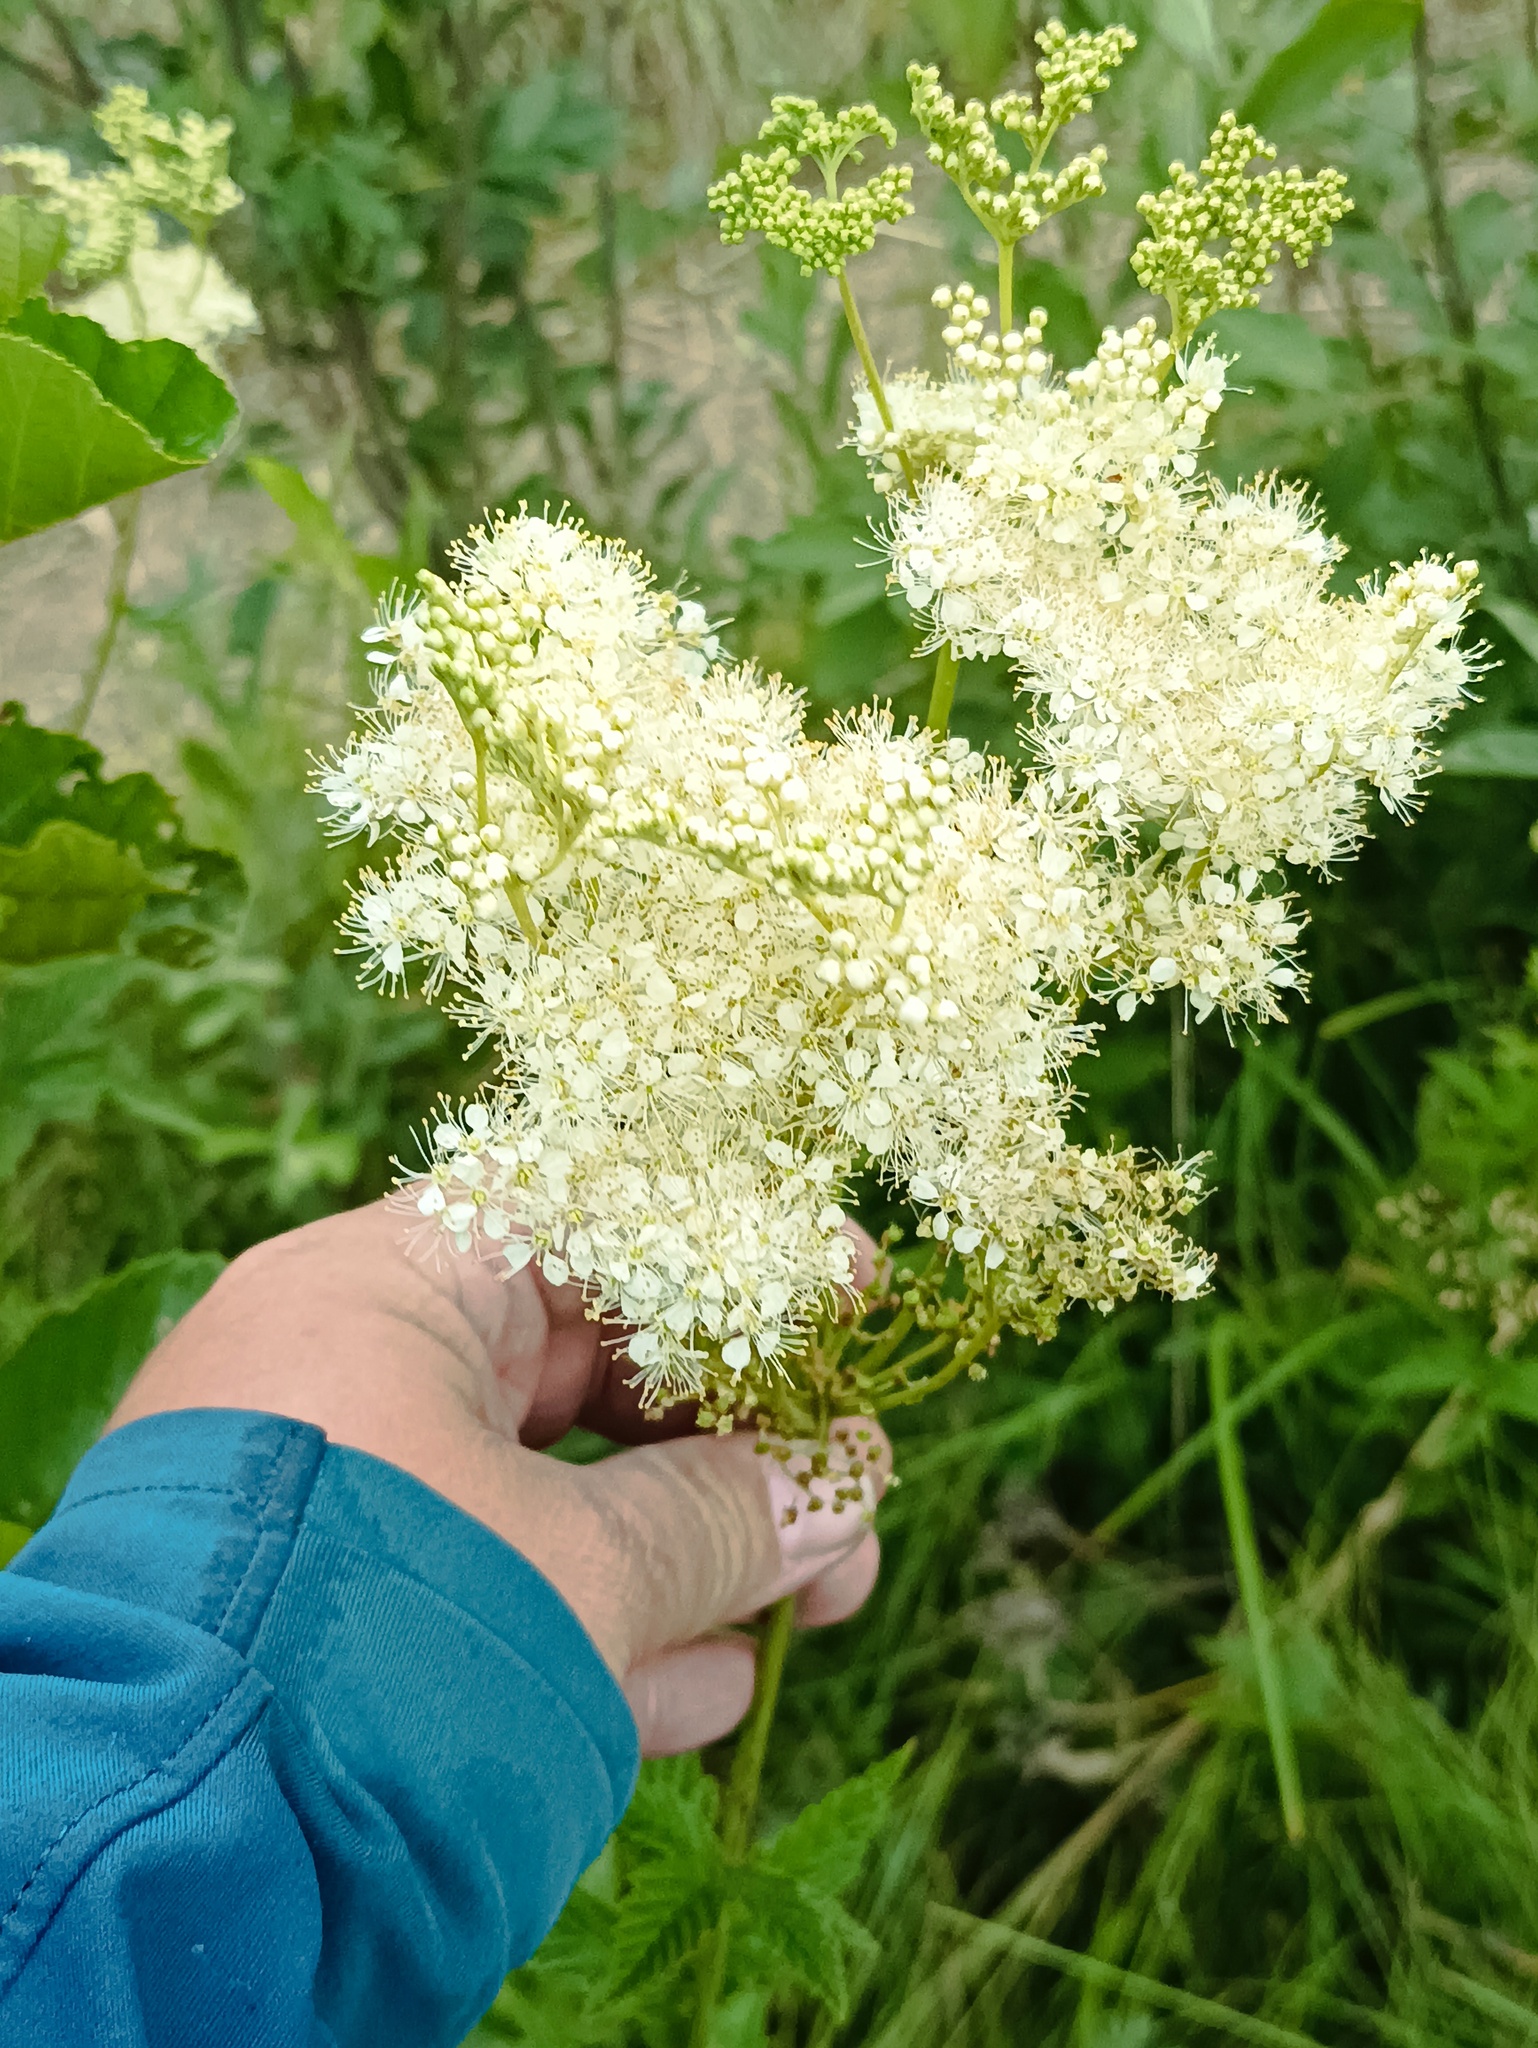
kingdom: Plantae
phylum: Tracheophyta
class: Magnoliopsida
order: Rosales
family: Rosaceae
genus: Filipendula
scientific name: Filipendula ulmaria
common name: Meadowsweet
